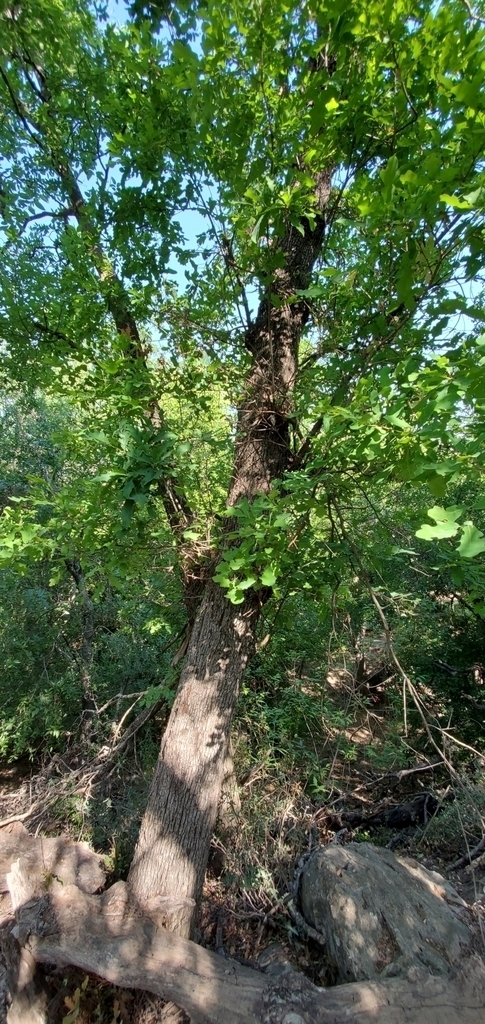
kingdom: Plantae
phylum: Tracheophyta
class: Magnoliopsida
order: Fagales
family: Fagaceae
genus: Quercus
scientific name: Quercus laceyi
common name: Lacey oak
